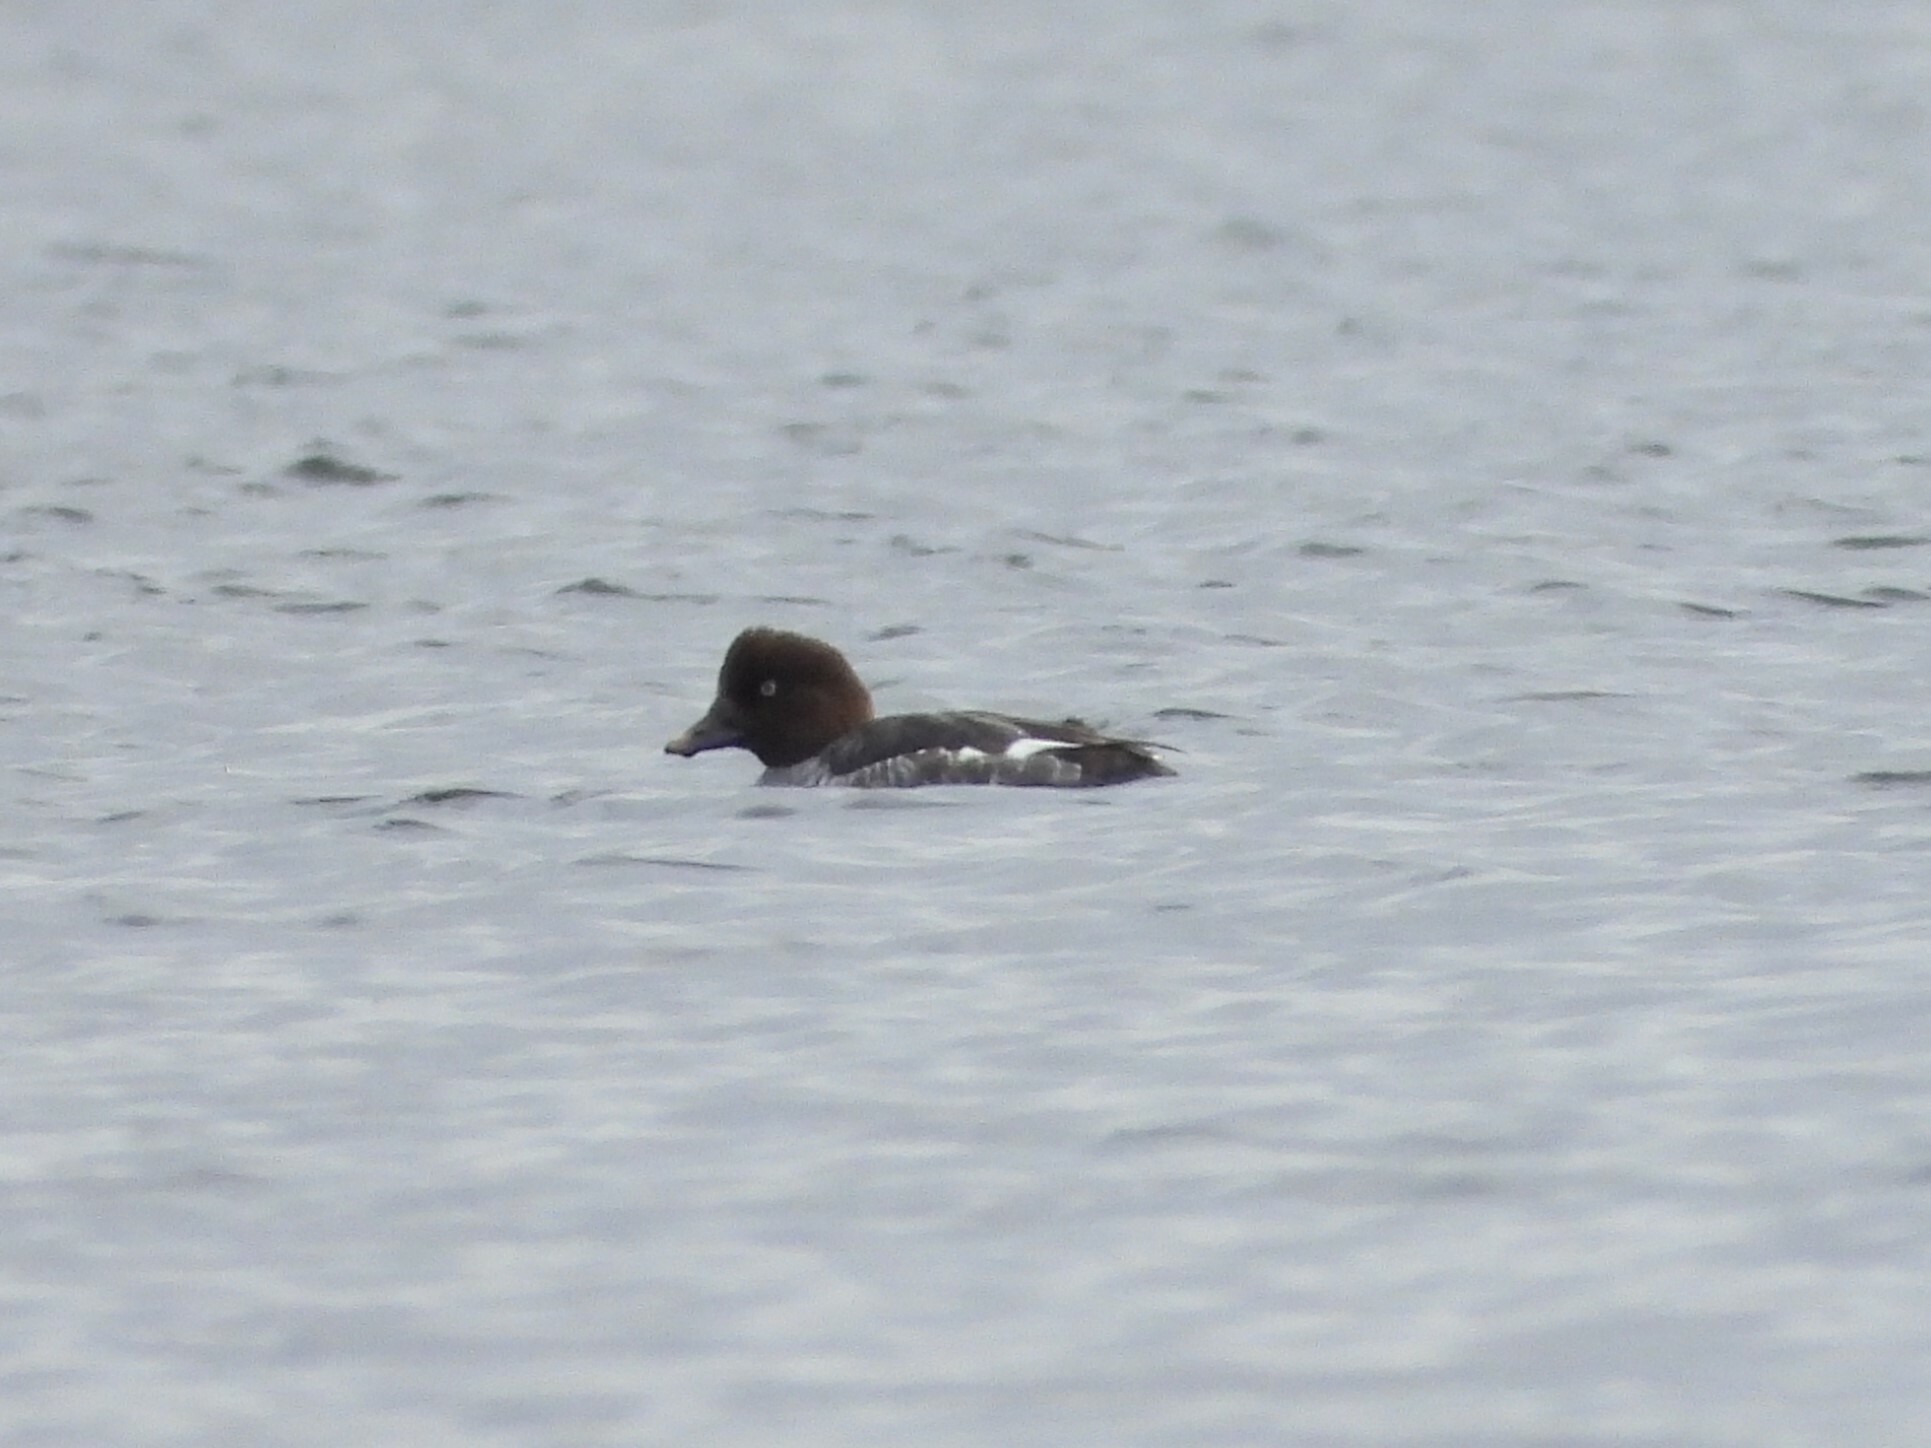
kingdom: Animalia
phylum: Chordata
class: Aves
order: Anseriformes
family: Anatidae
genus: Bucephala
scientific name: Bucephala clangula
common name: Common goldeneye
